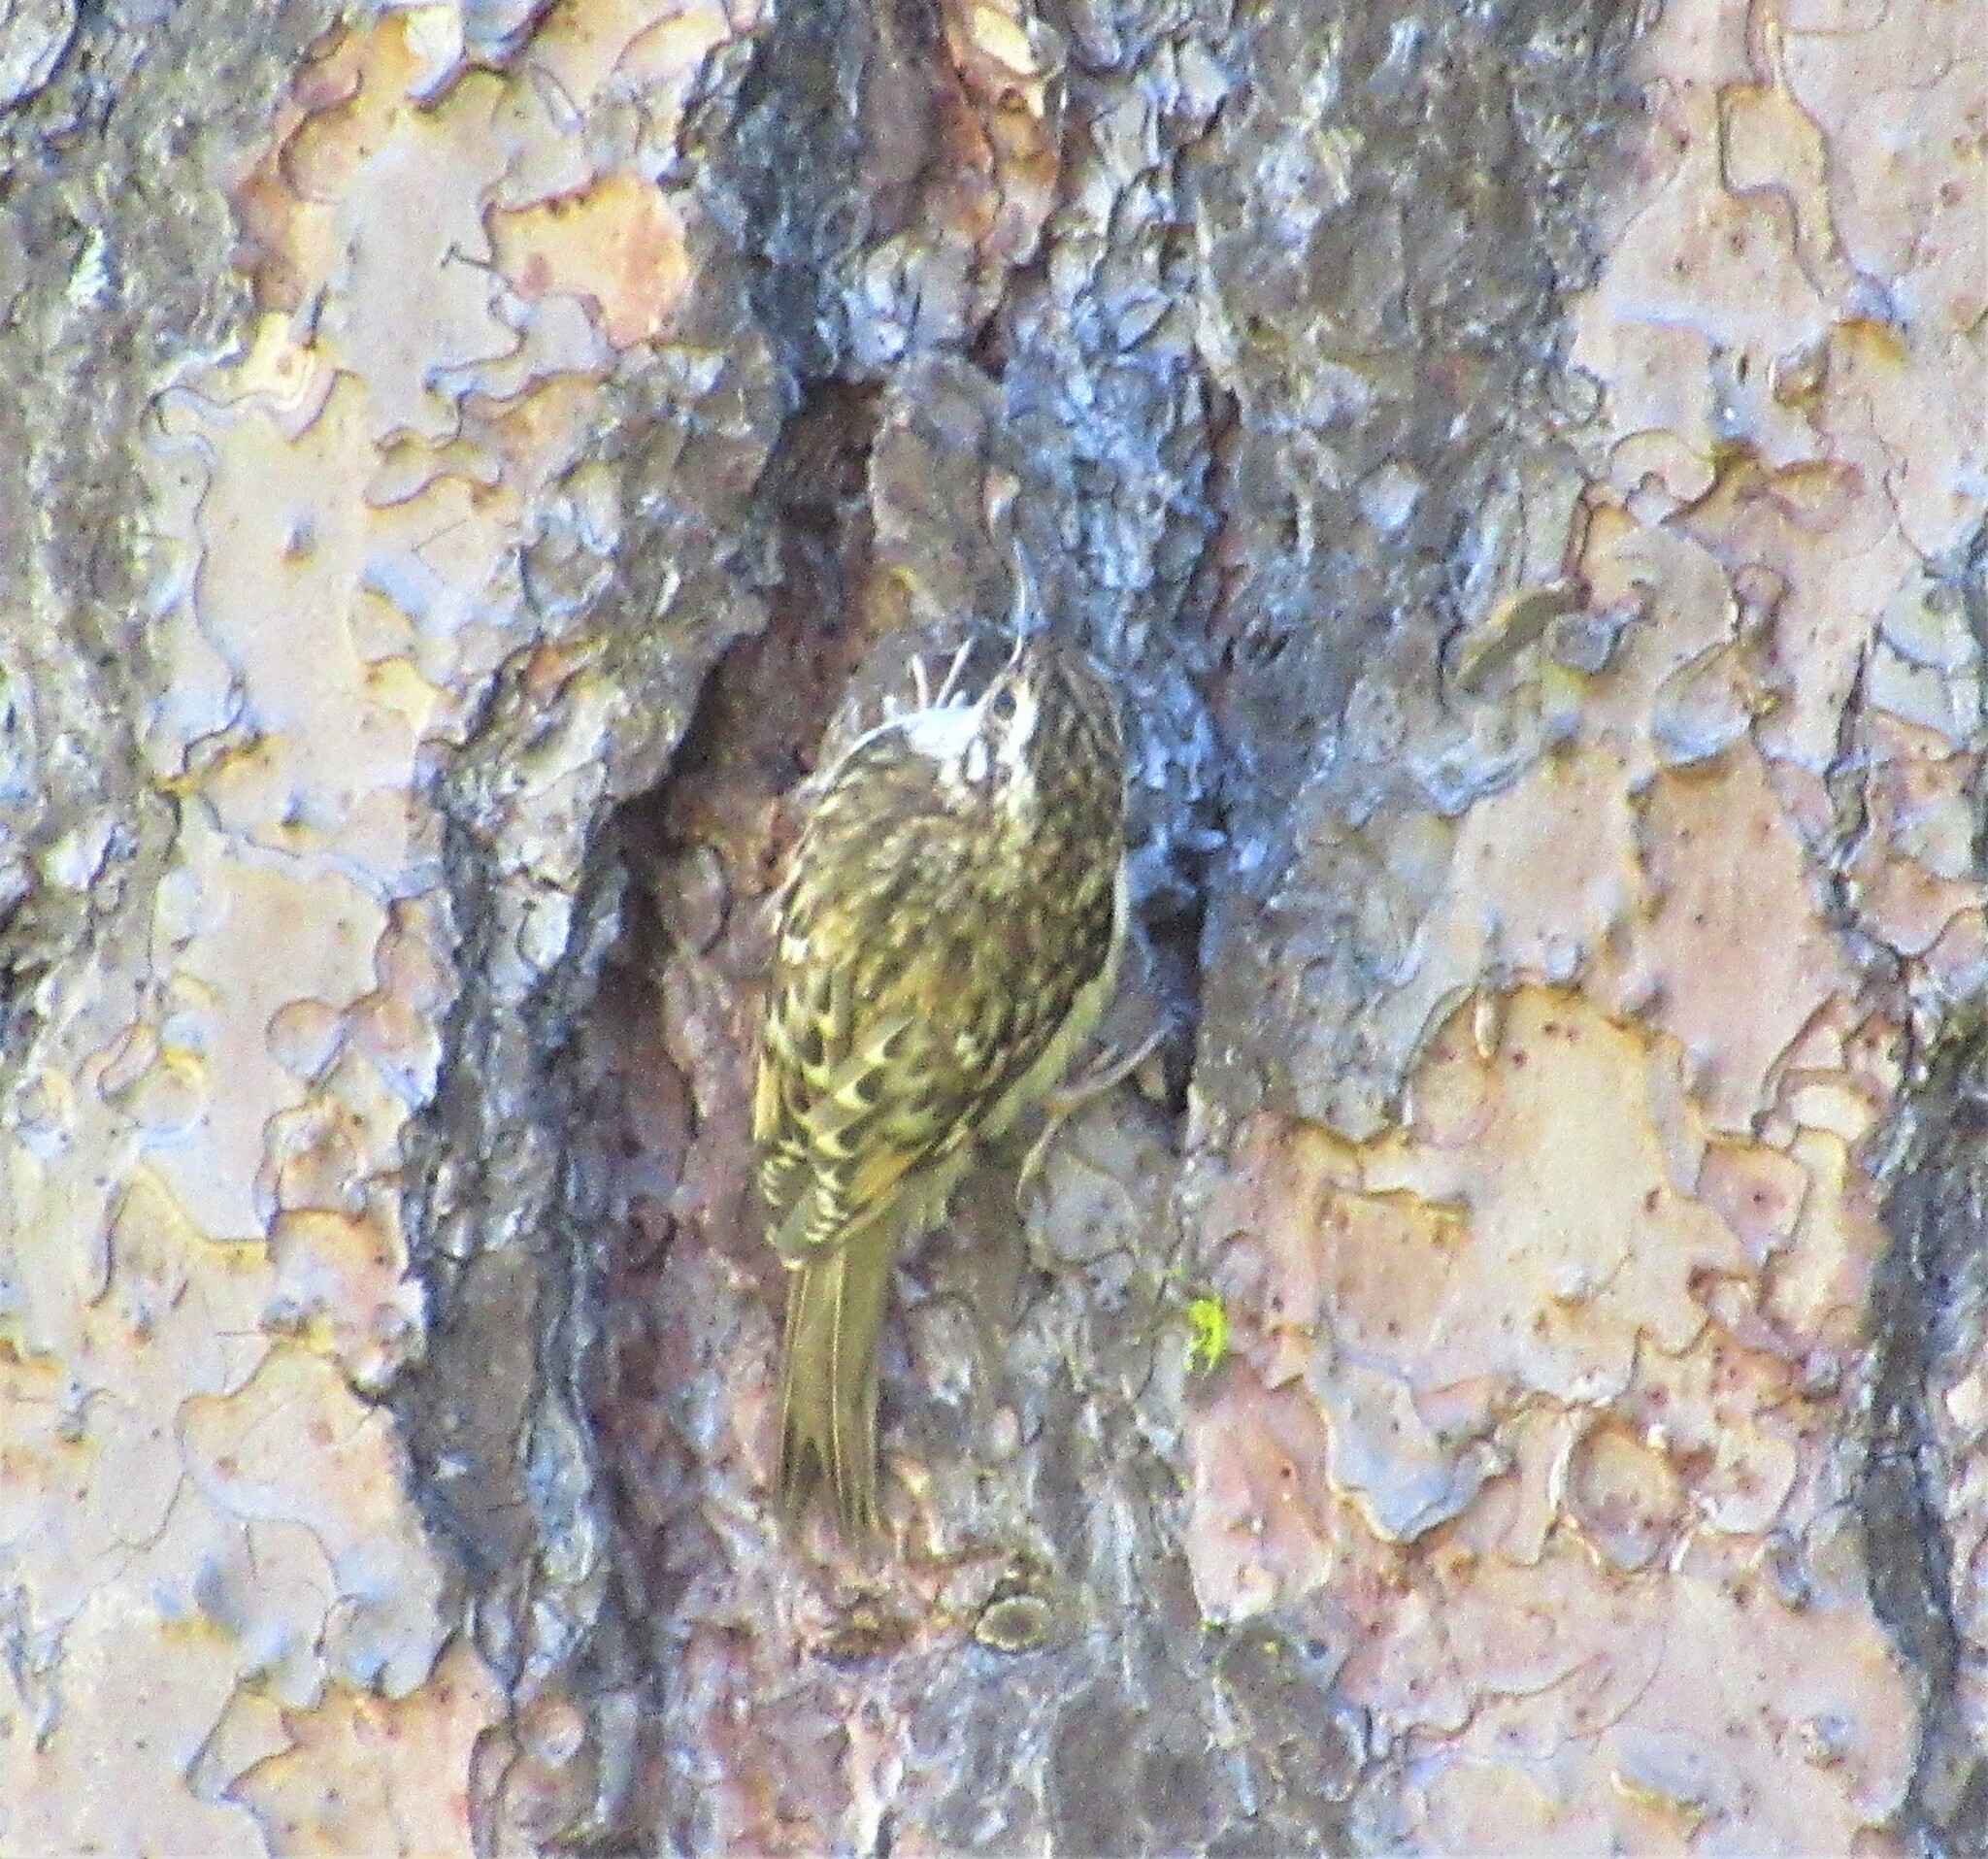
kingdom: Animalia
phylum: Chordata
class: Aves
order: Passeriformes
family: Certhiidae
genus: Certhia
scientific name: Certhia americana
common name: Brown creeper
